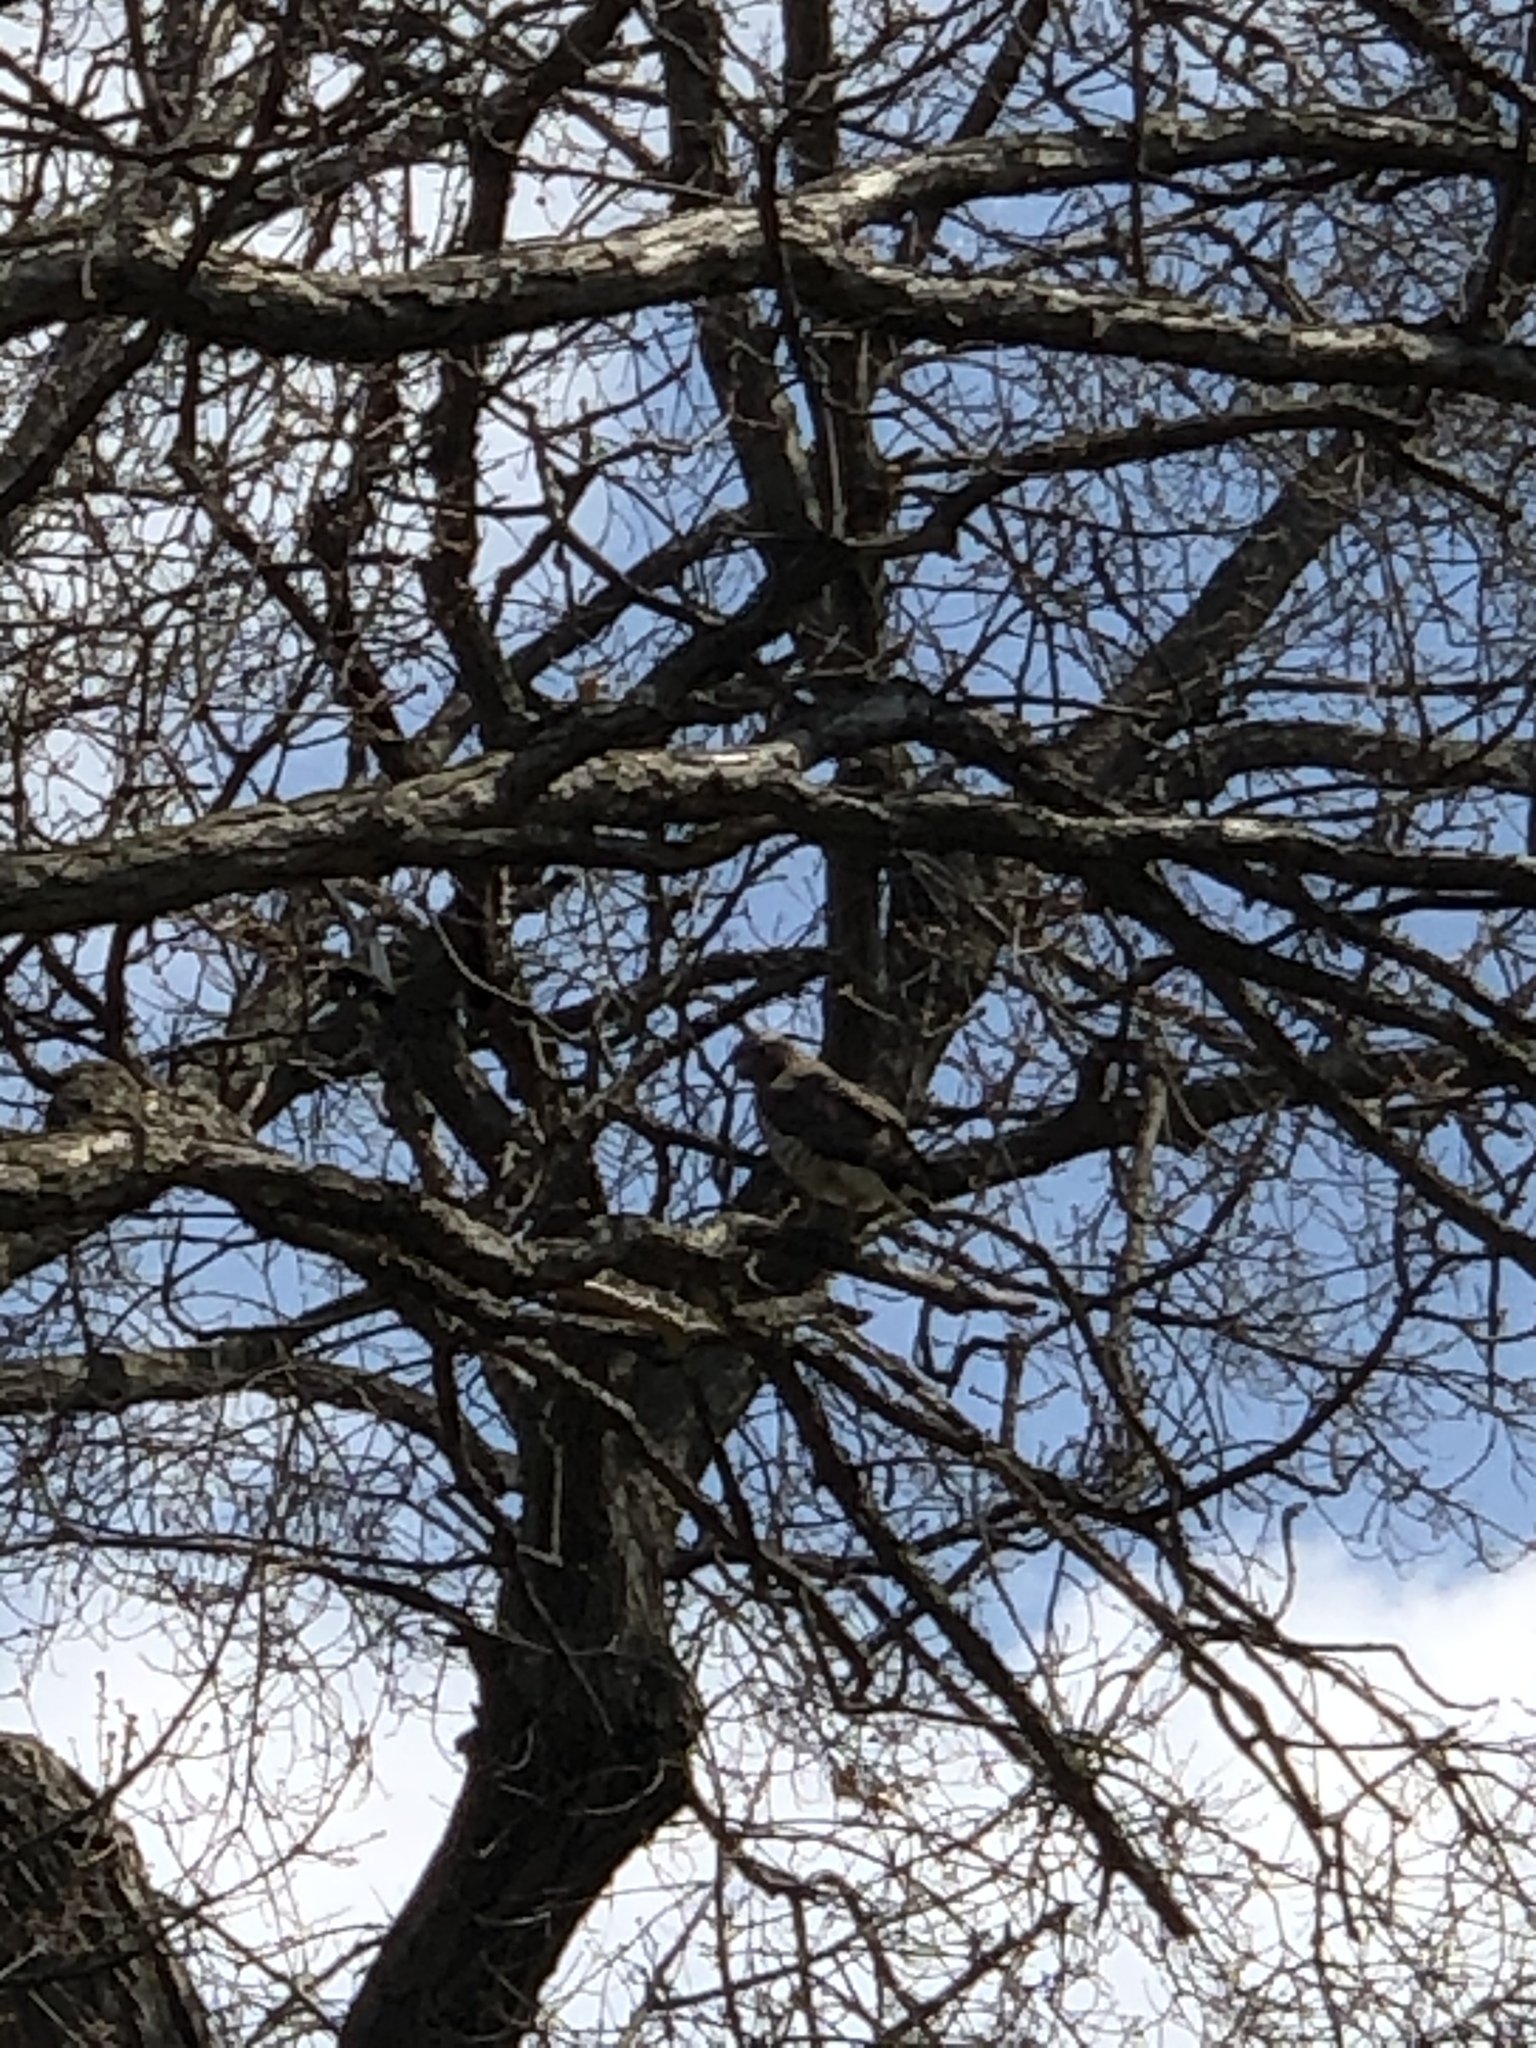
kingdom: Animalia
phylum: Chordata
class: Aves
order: Accipitriformes
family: Accipitridae
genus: Buteo
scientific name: Buteo platypterus
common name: Broad-winged hawk
